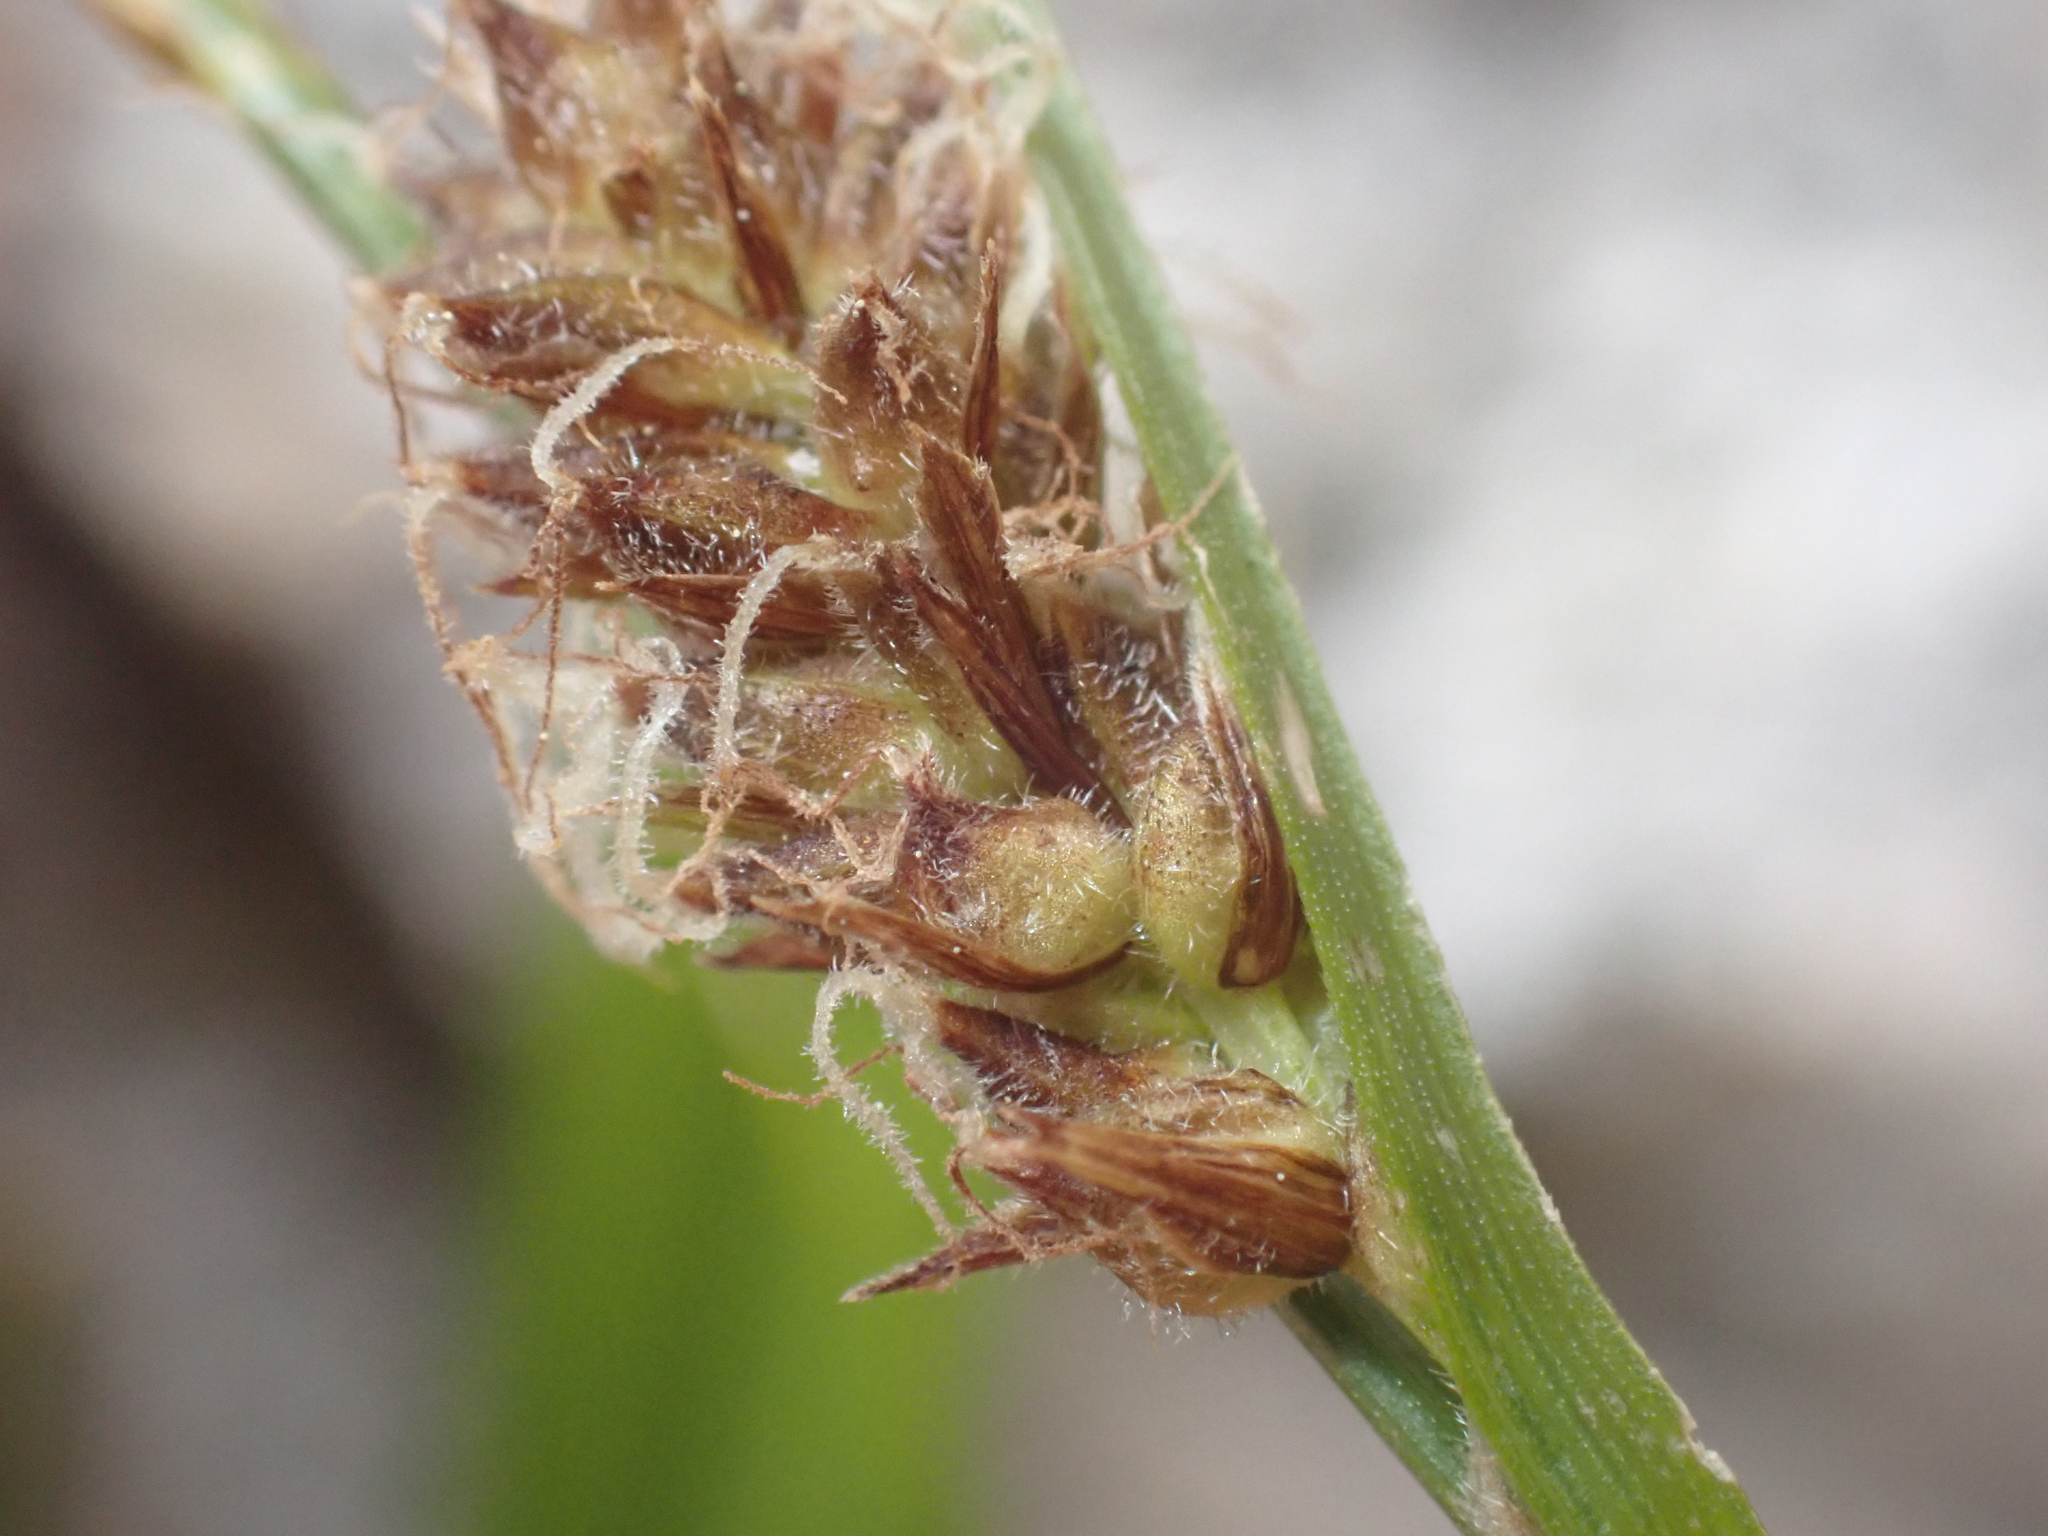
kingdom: Plantae
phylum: Tracheophyta
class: Liliopsida
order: Poales
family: Cyperaceae
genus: Carex
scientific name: Carex congdonii
